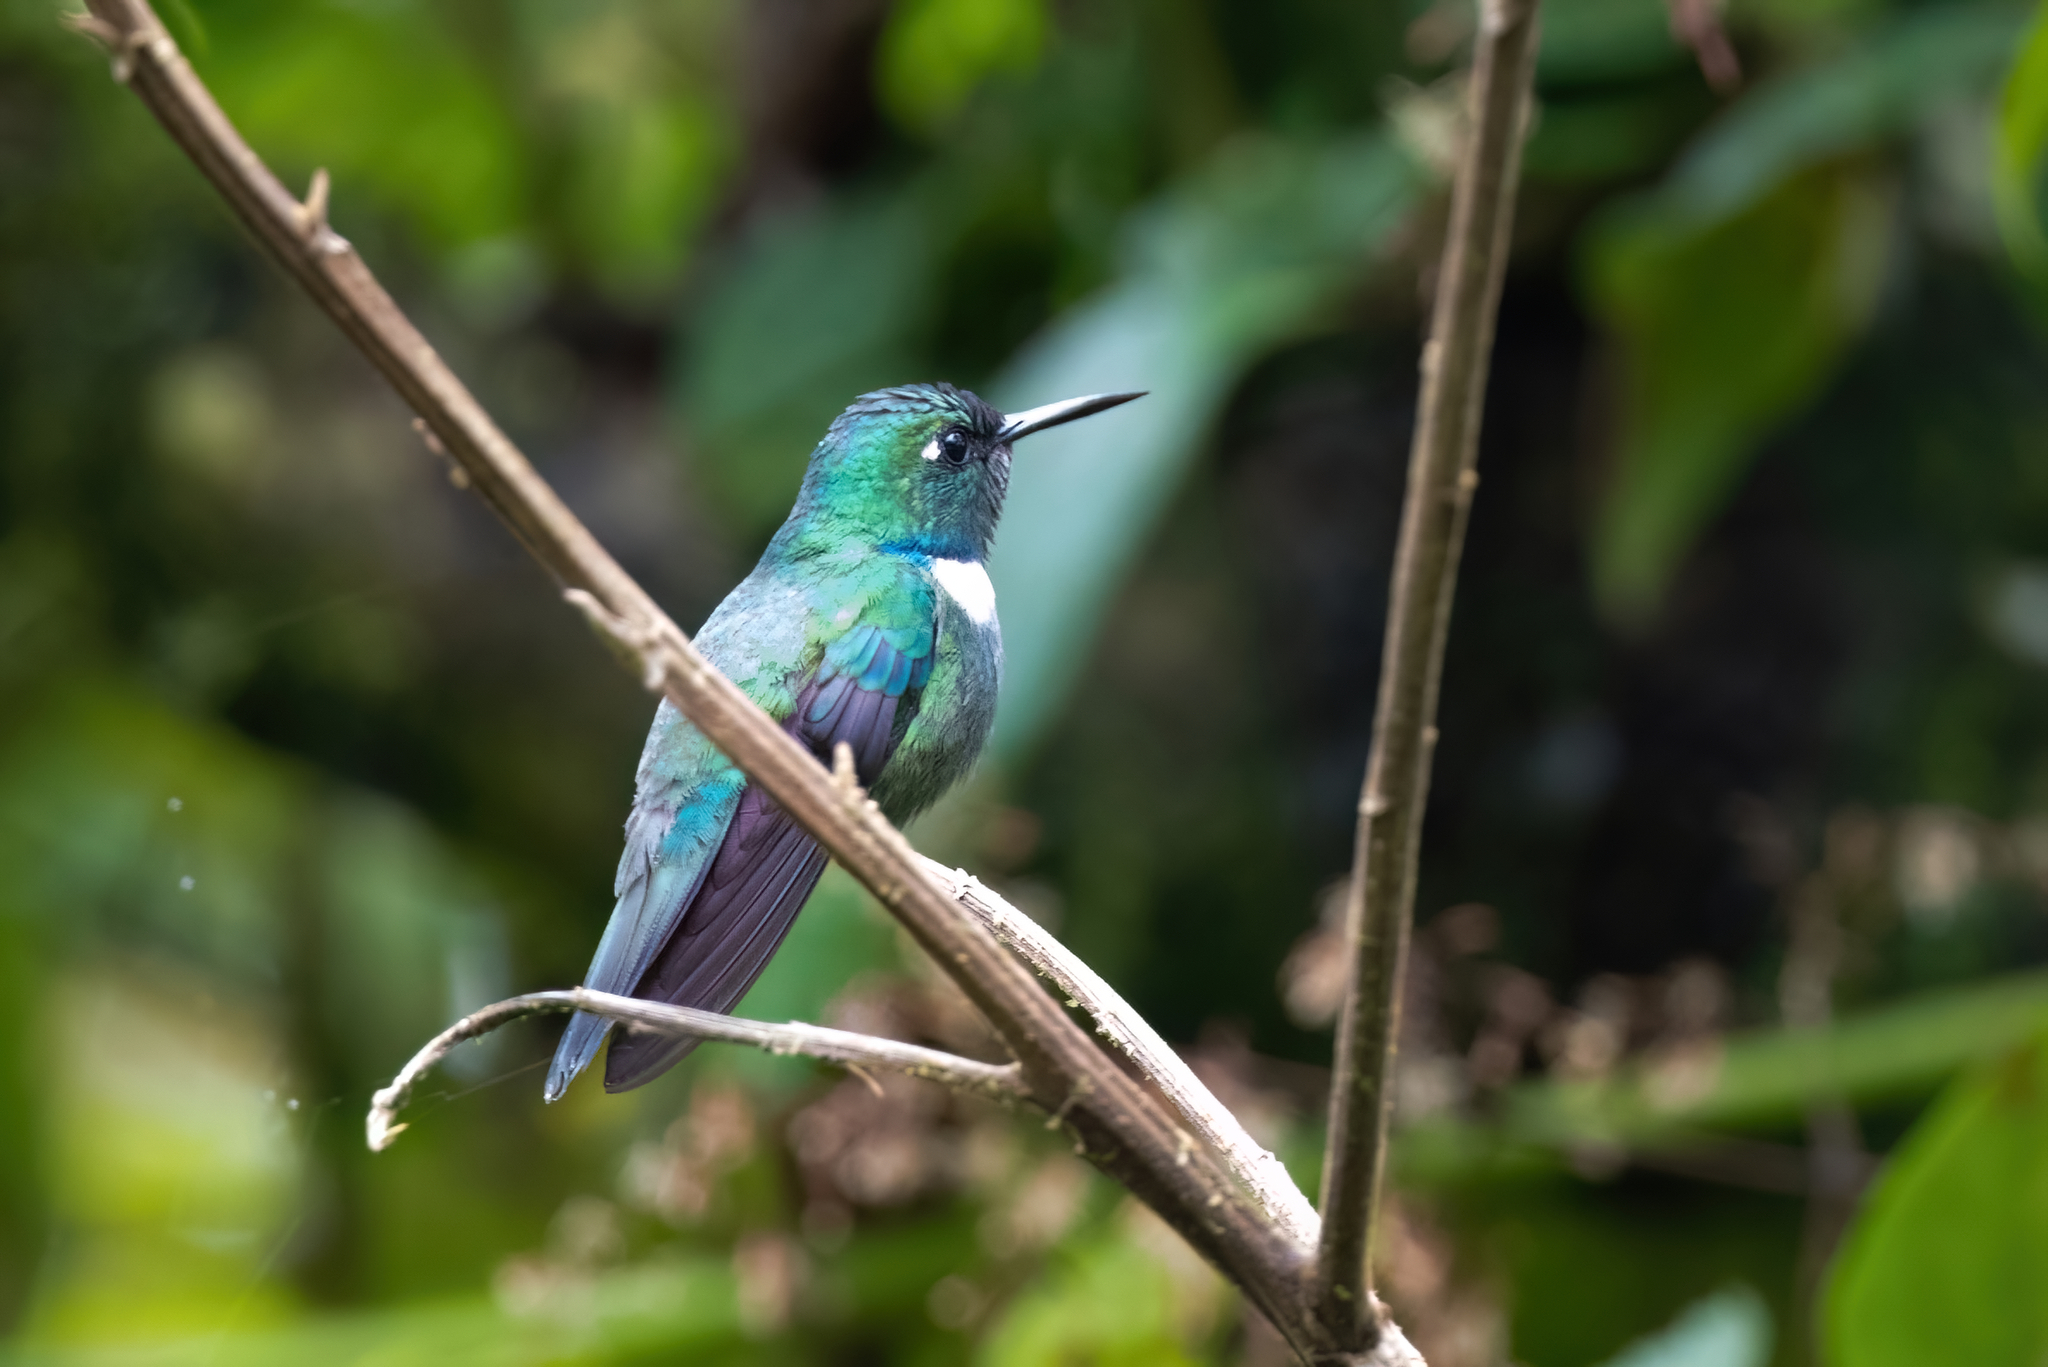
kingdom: Animalia
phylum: Chordata
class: Aves
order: Apodiformes
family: Trochilidae
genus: Schistes
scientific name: Schistes albogularis
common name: White-throated daggerbill
